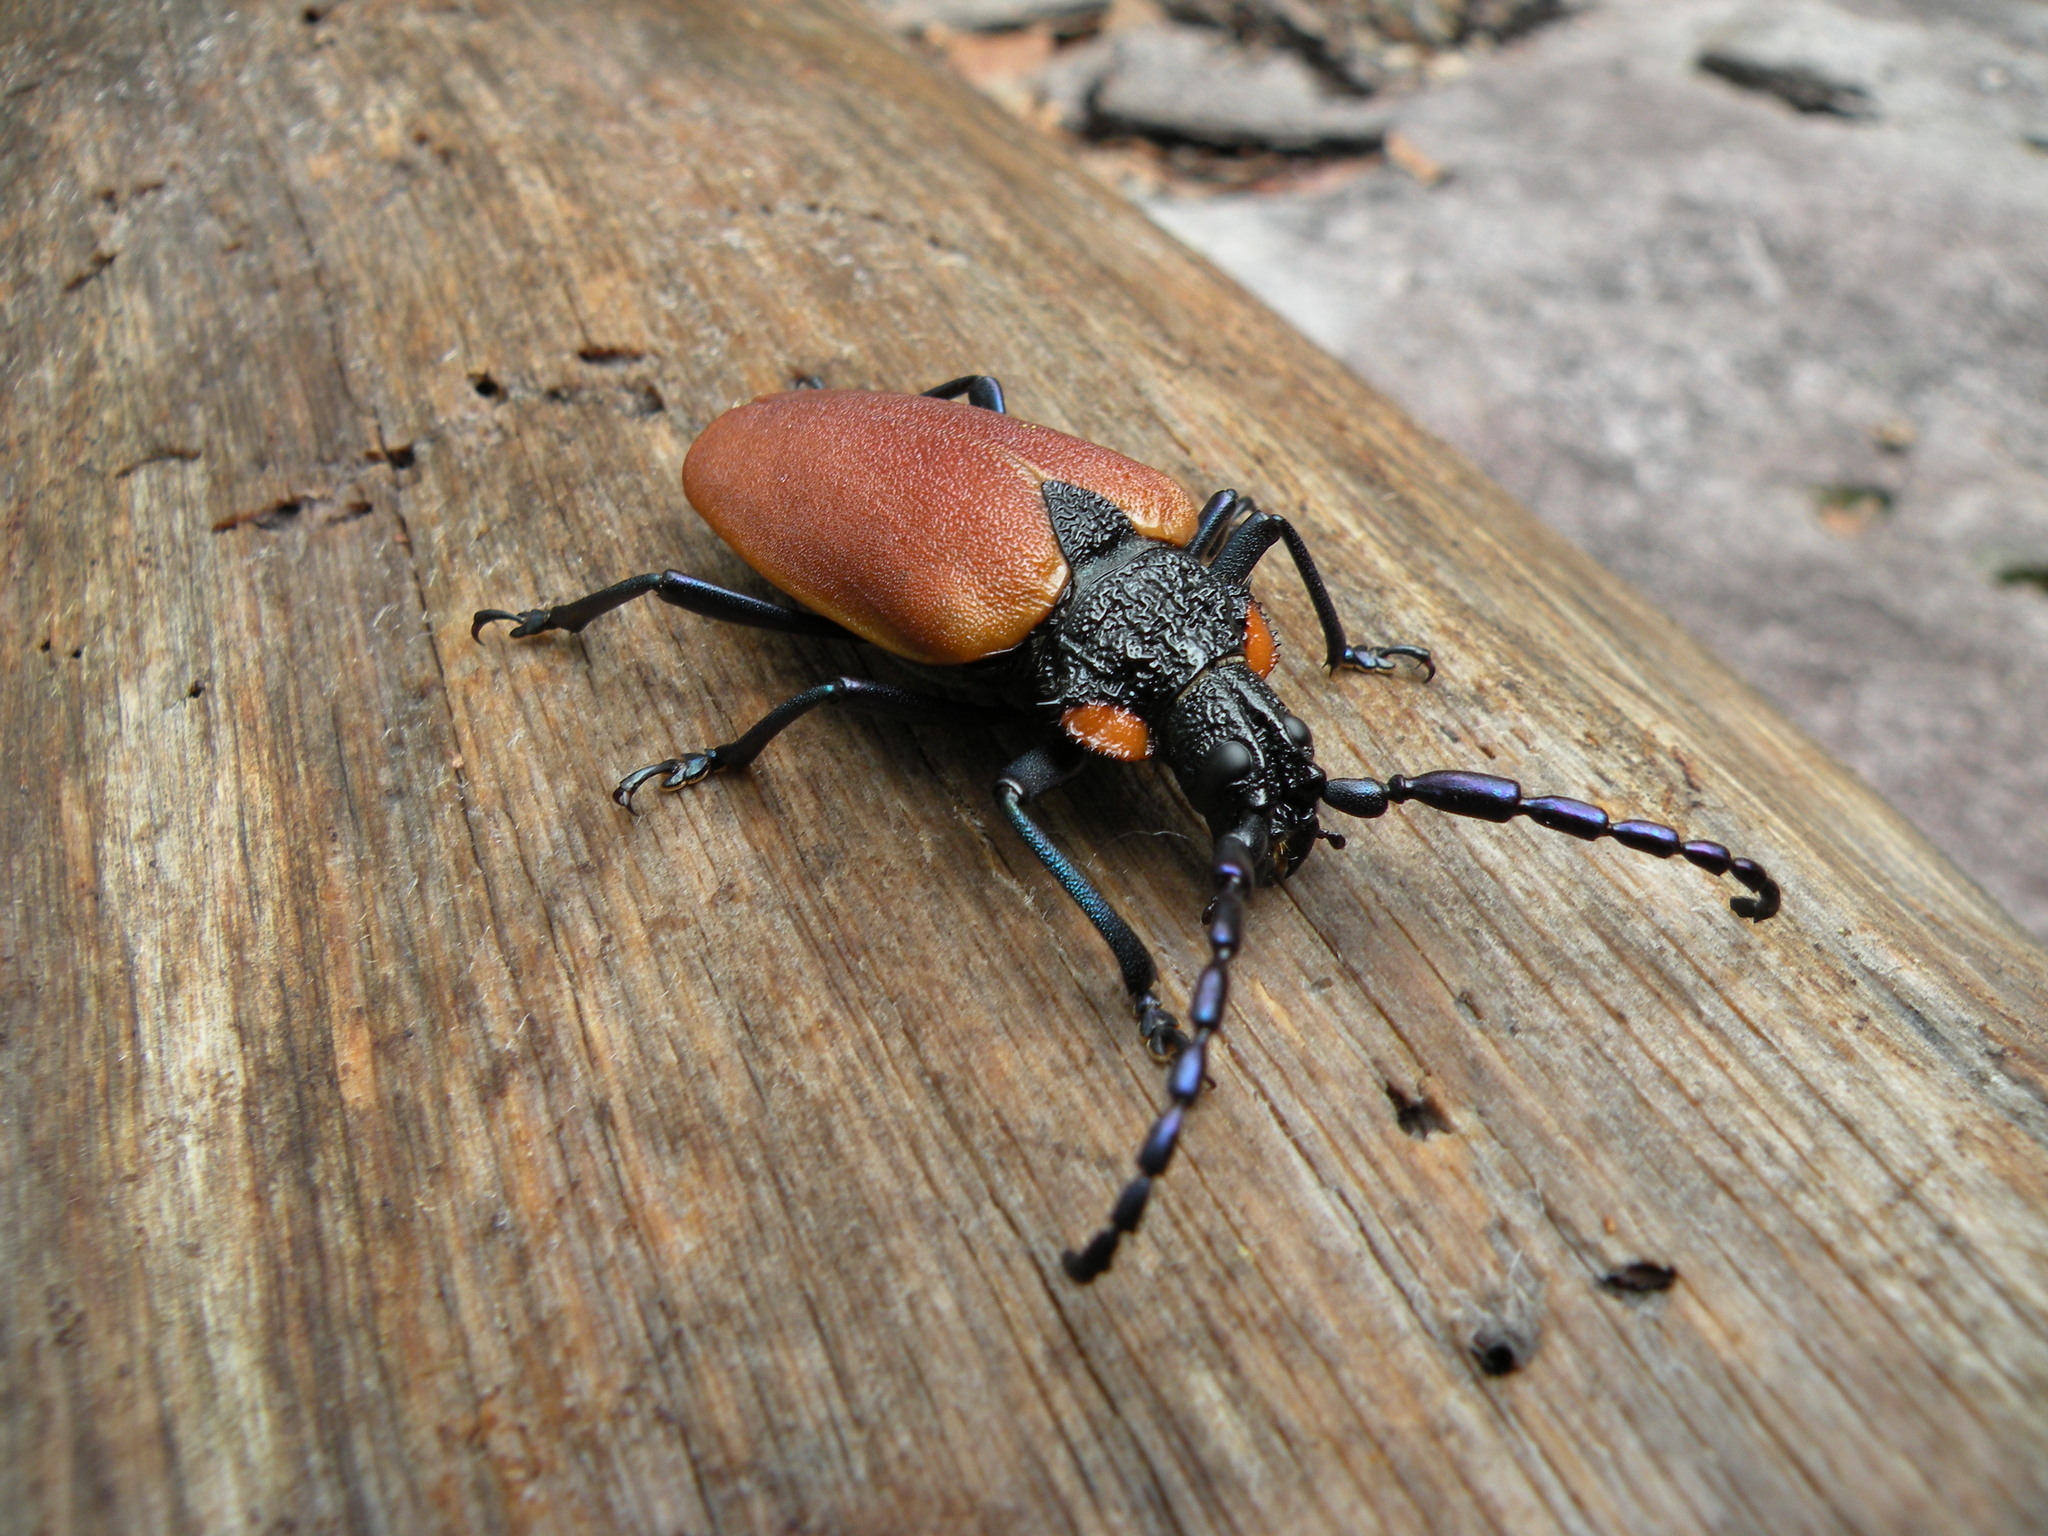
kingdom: Animalia
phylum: Arthropoda
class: Insecta
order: Coleoptera
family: Cerambycidae
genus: Oropyrodes
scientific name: Oropyrodes maculicollis
